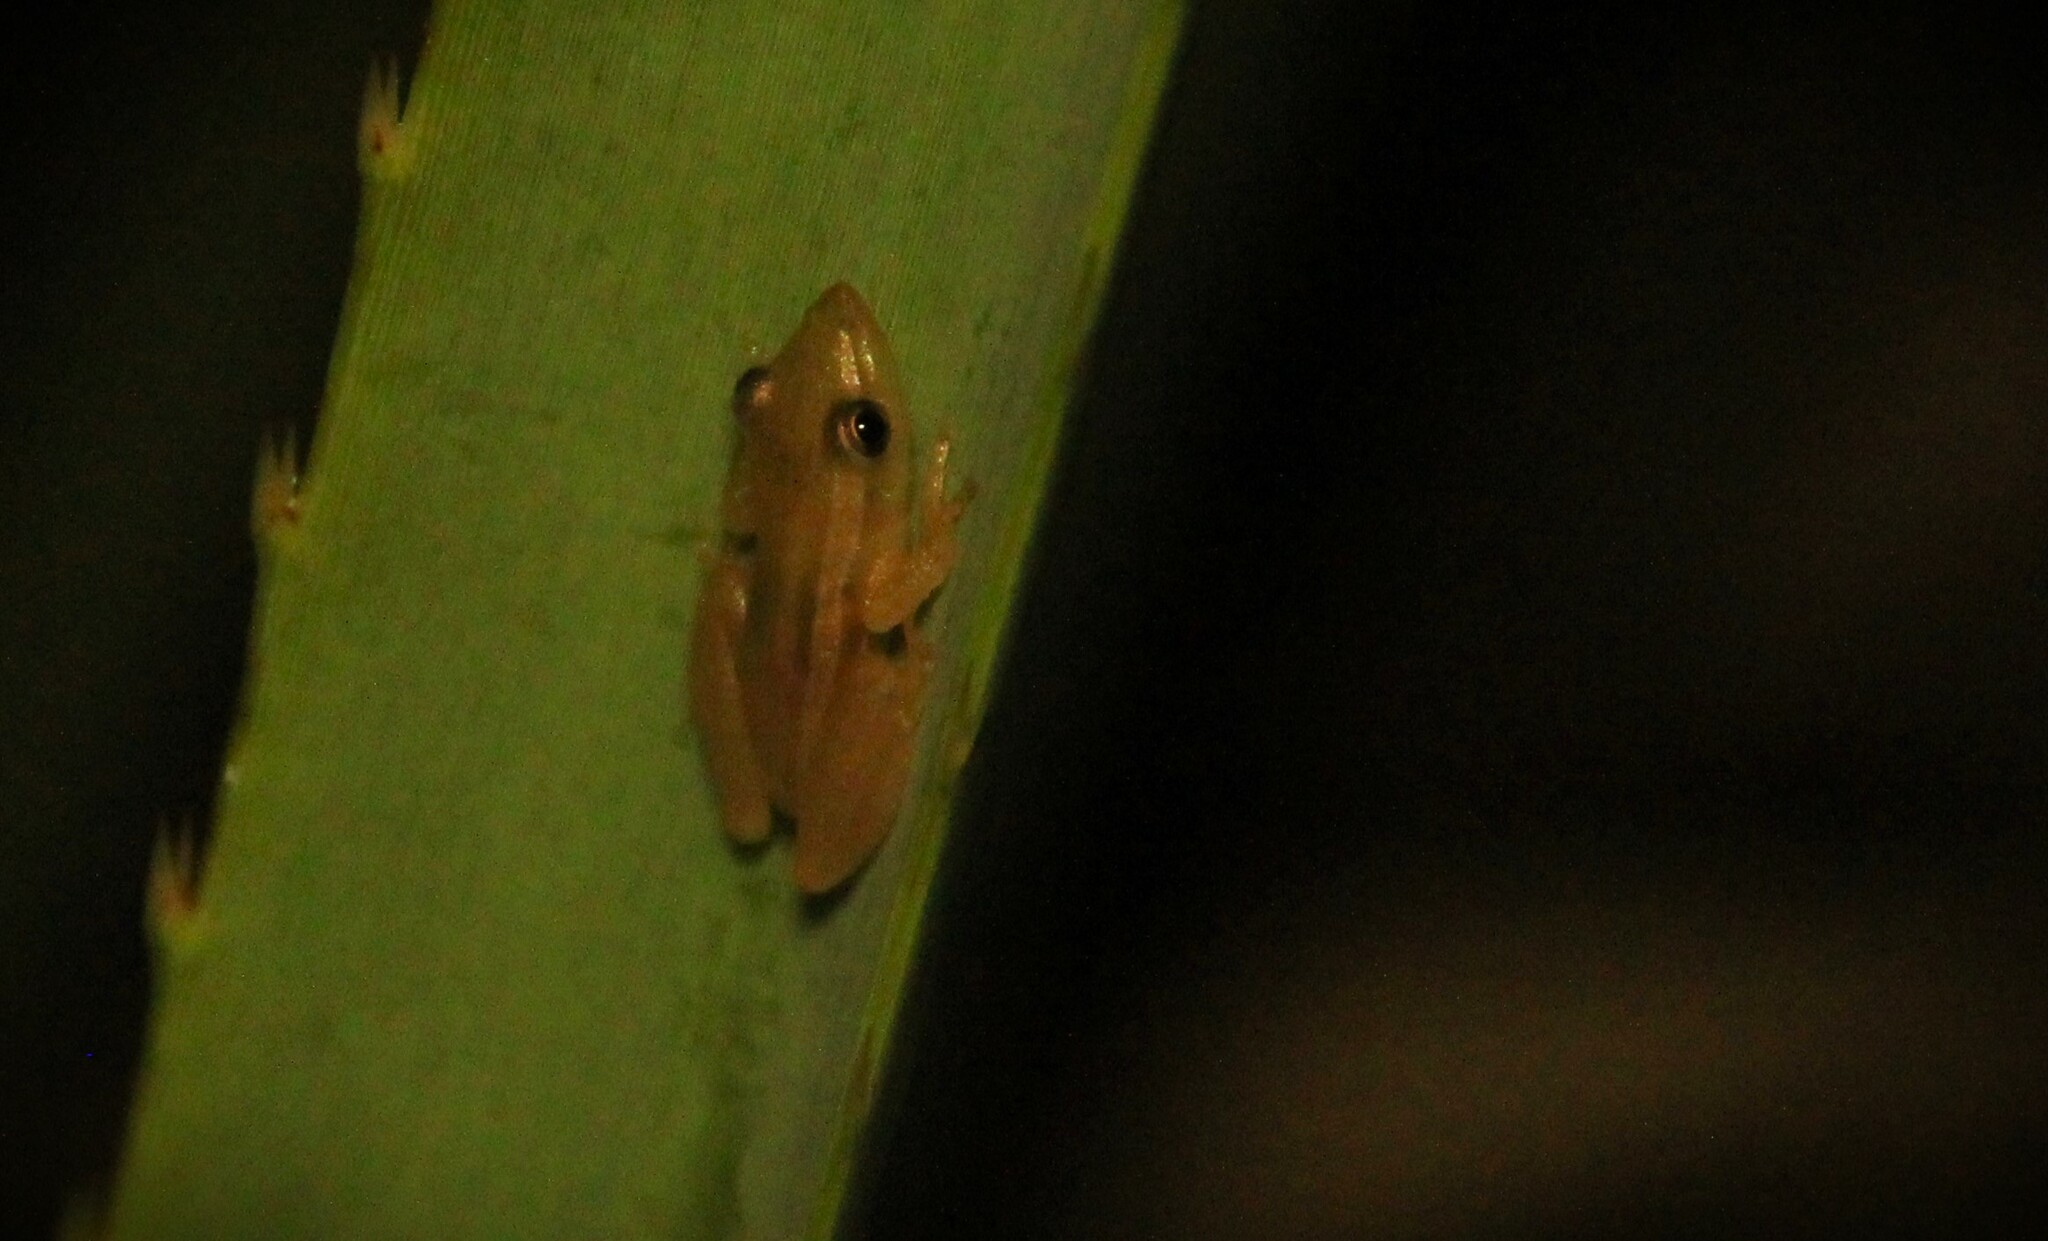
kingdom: Animalia
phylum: Chordata
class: Amphibia
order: Anura
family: Hylidae
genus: Scinax
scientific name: Scinax squalirostris
